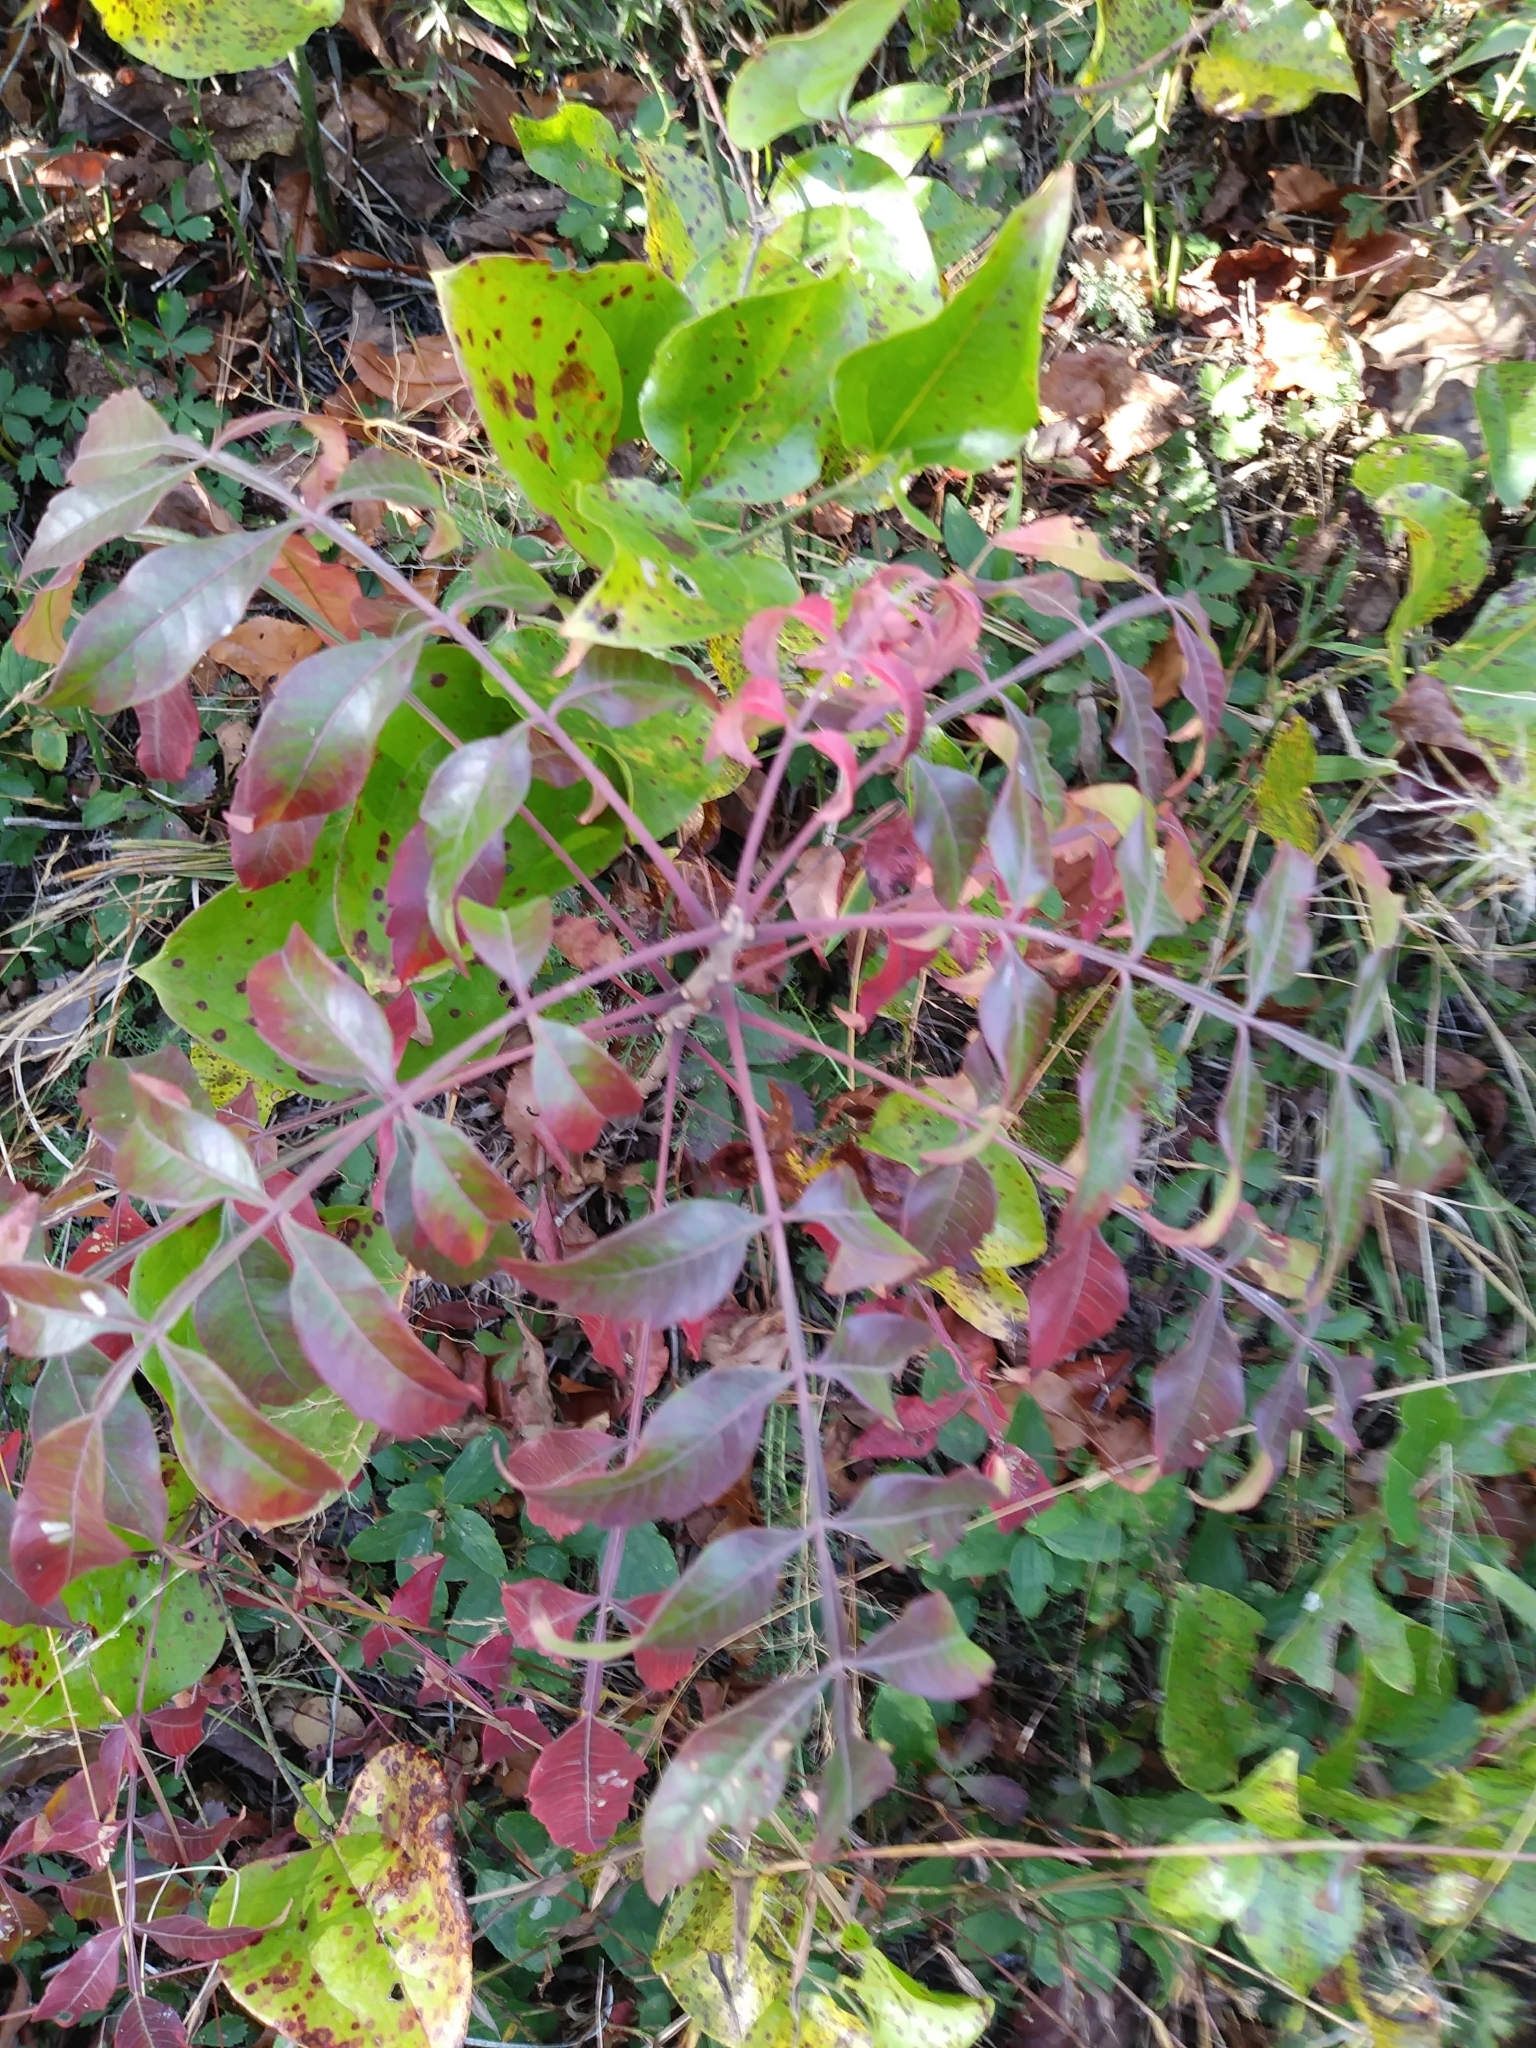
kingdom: Plantae
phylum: Tracheophyta
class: Magnoliopsida
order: Sapindales
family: Anacardiaceae
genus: Rhus
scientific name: Rhus copallina
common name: Shining sumac
